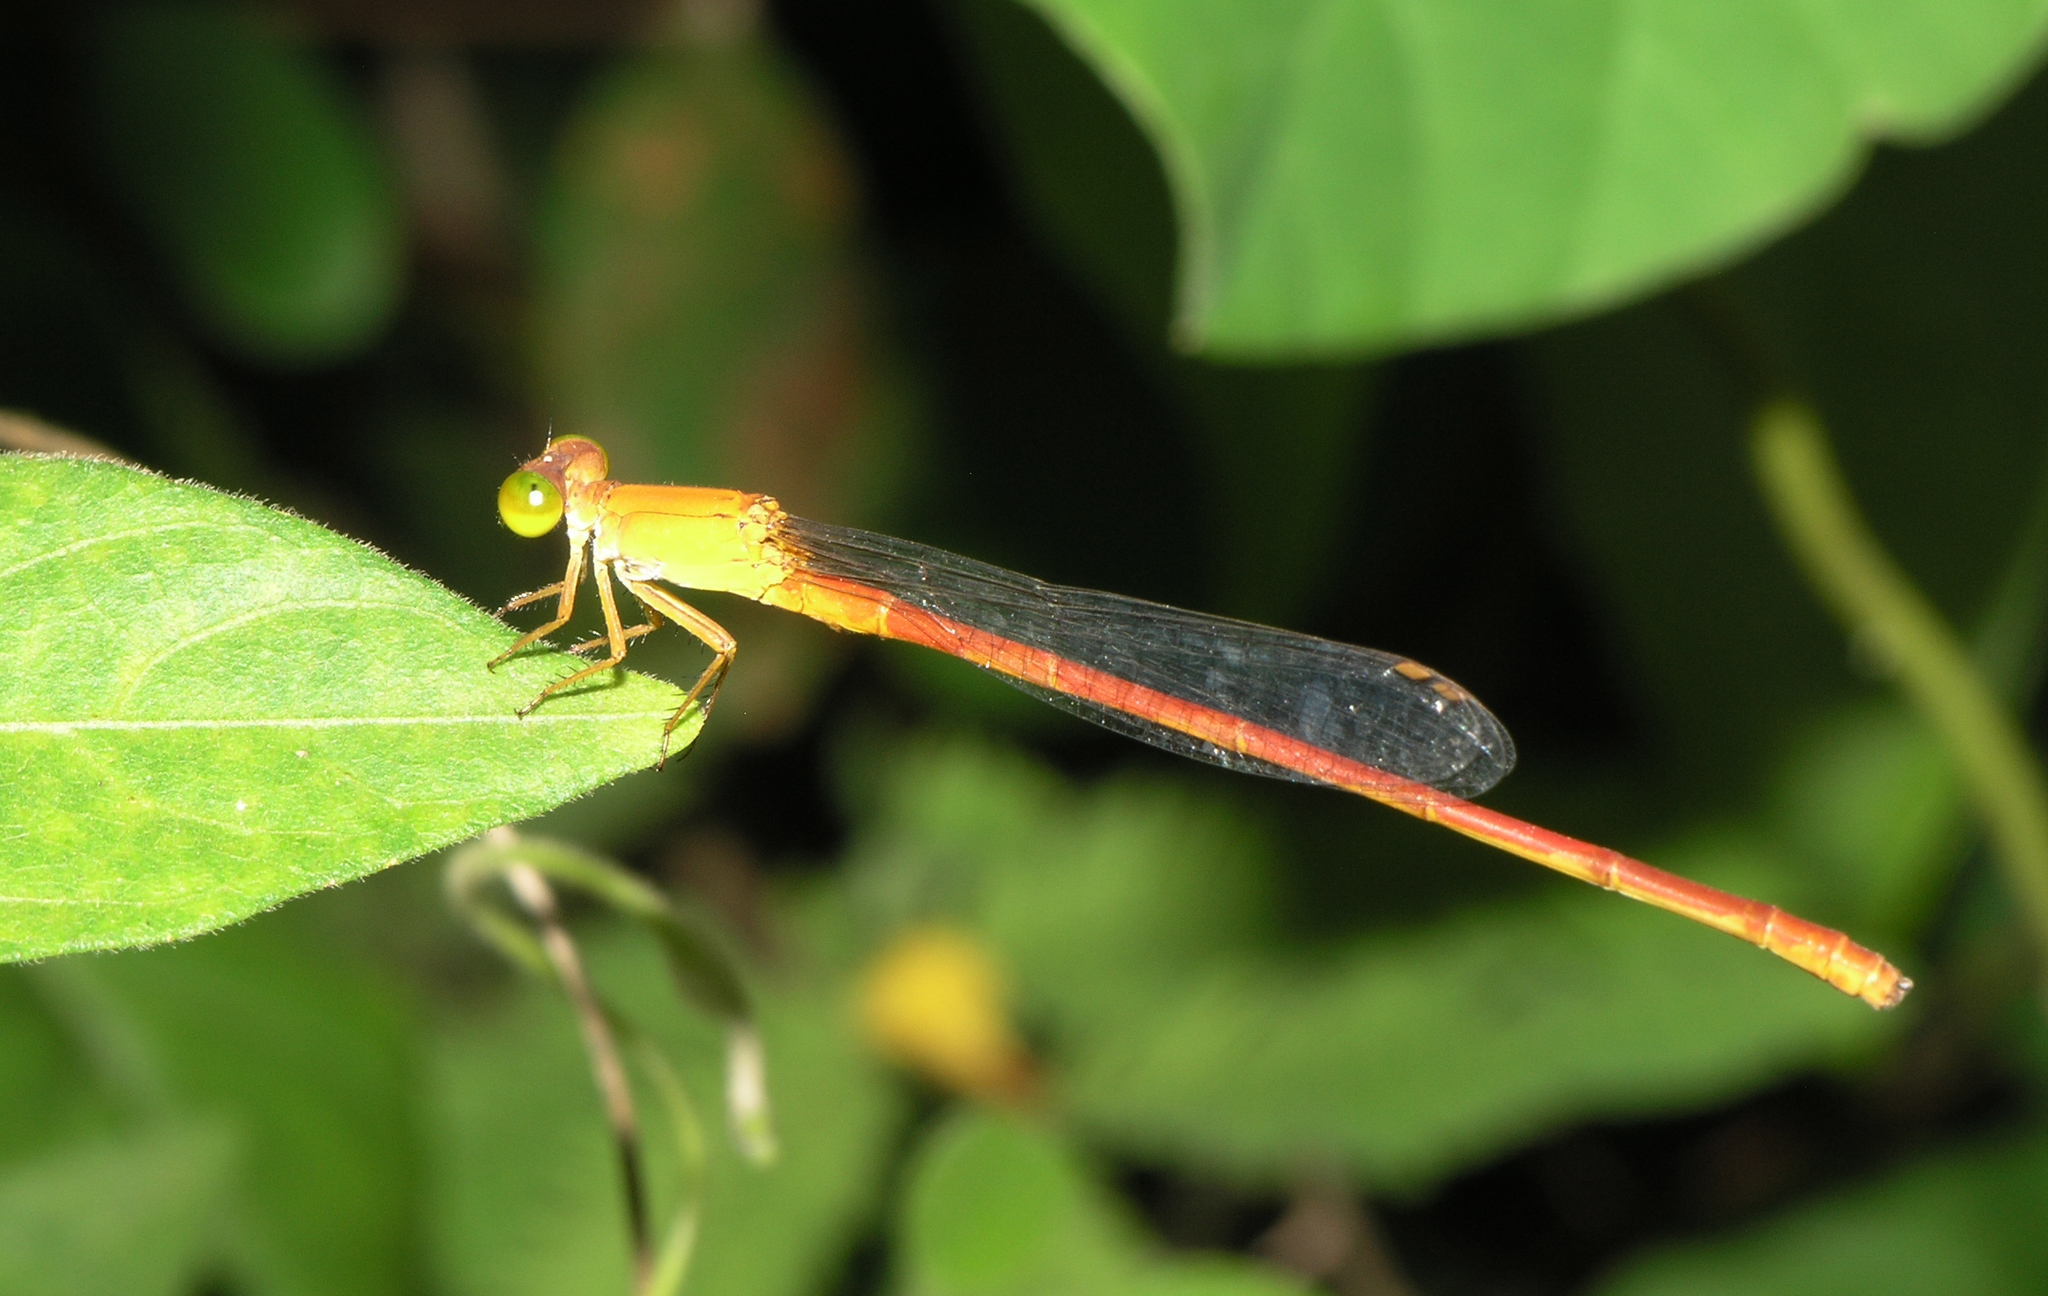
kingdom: Animalia
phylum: Arthropoda
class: Insecta
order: Odonata
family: Coenagrionidae
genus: Ceriagrion
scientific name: Ceriagrion malaisei
